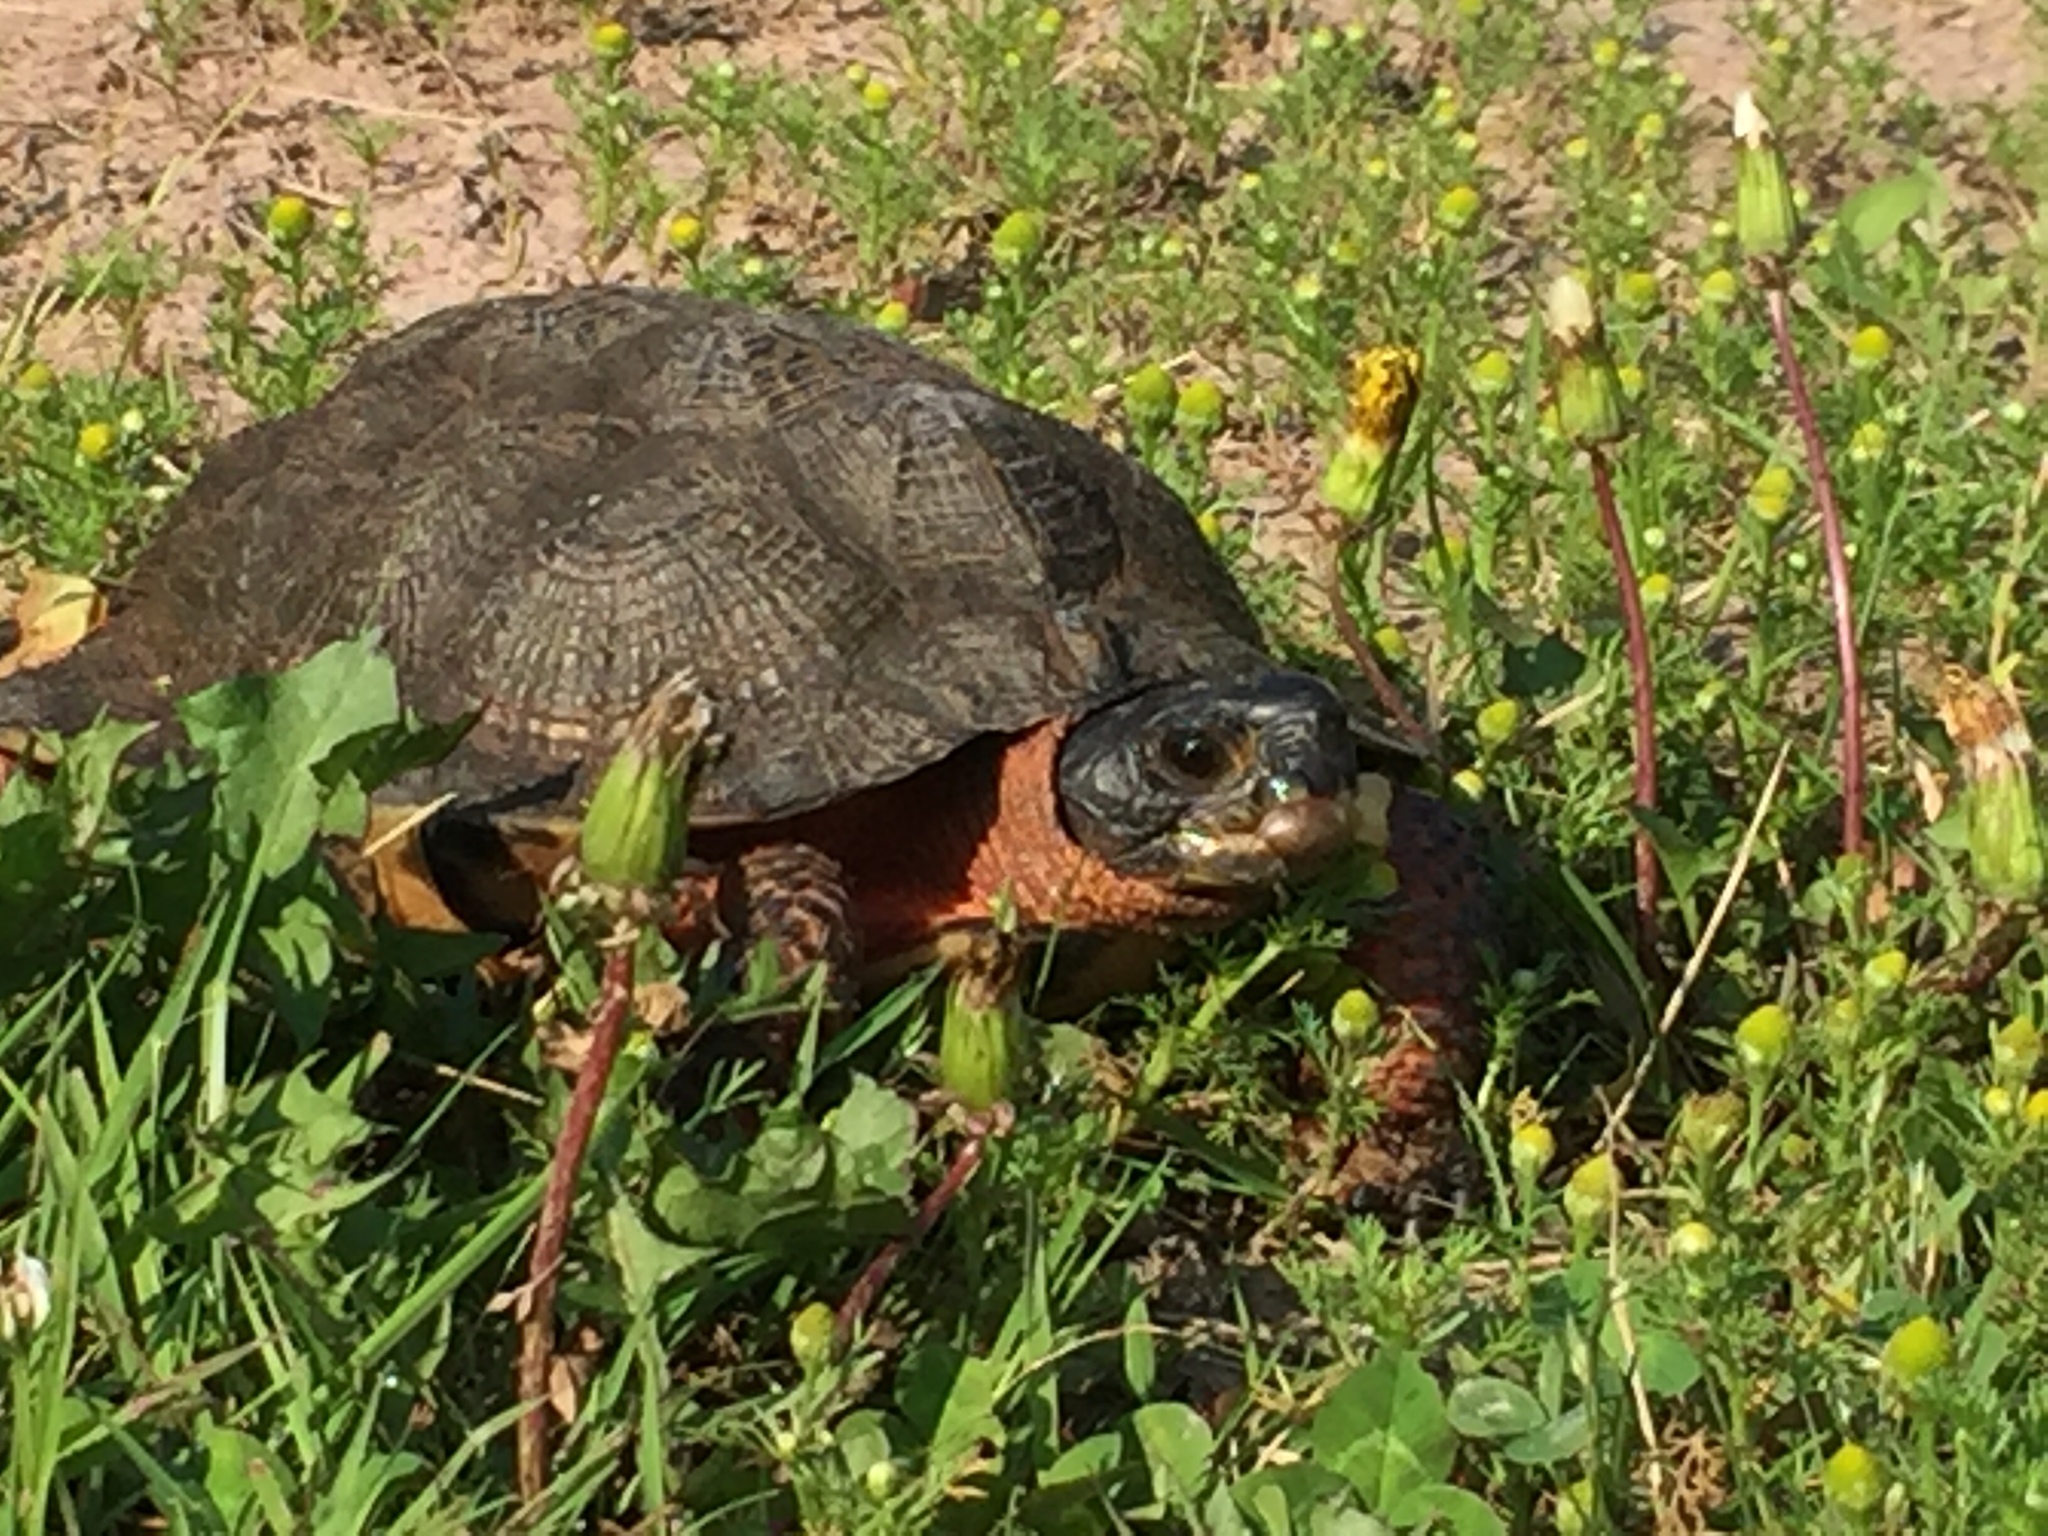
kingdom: Animalia
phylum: Chordata
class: Testudines
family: Emydidae
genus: Glyptemys
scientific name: Glyptemys insculpta
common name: Wood turtle
